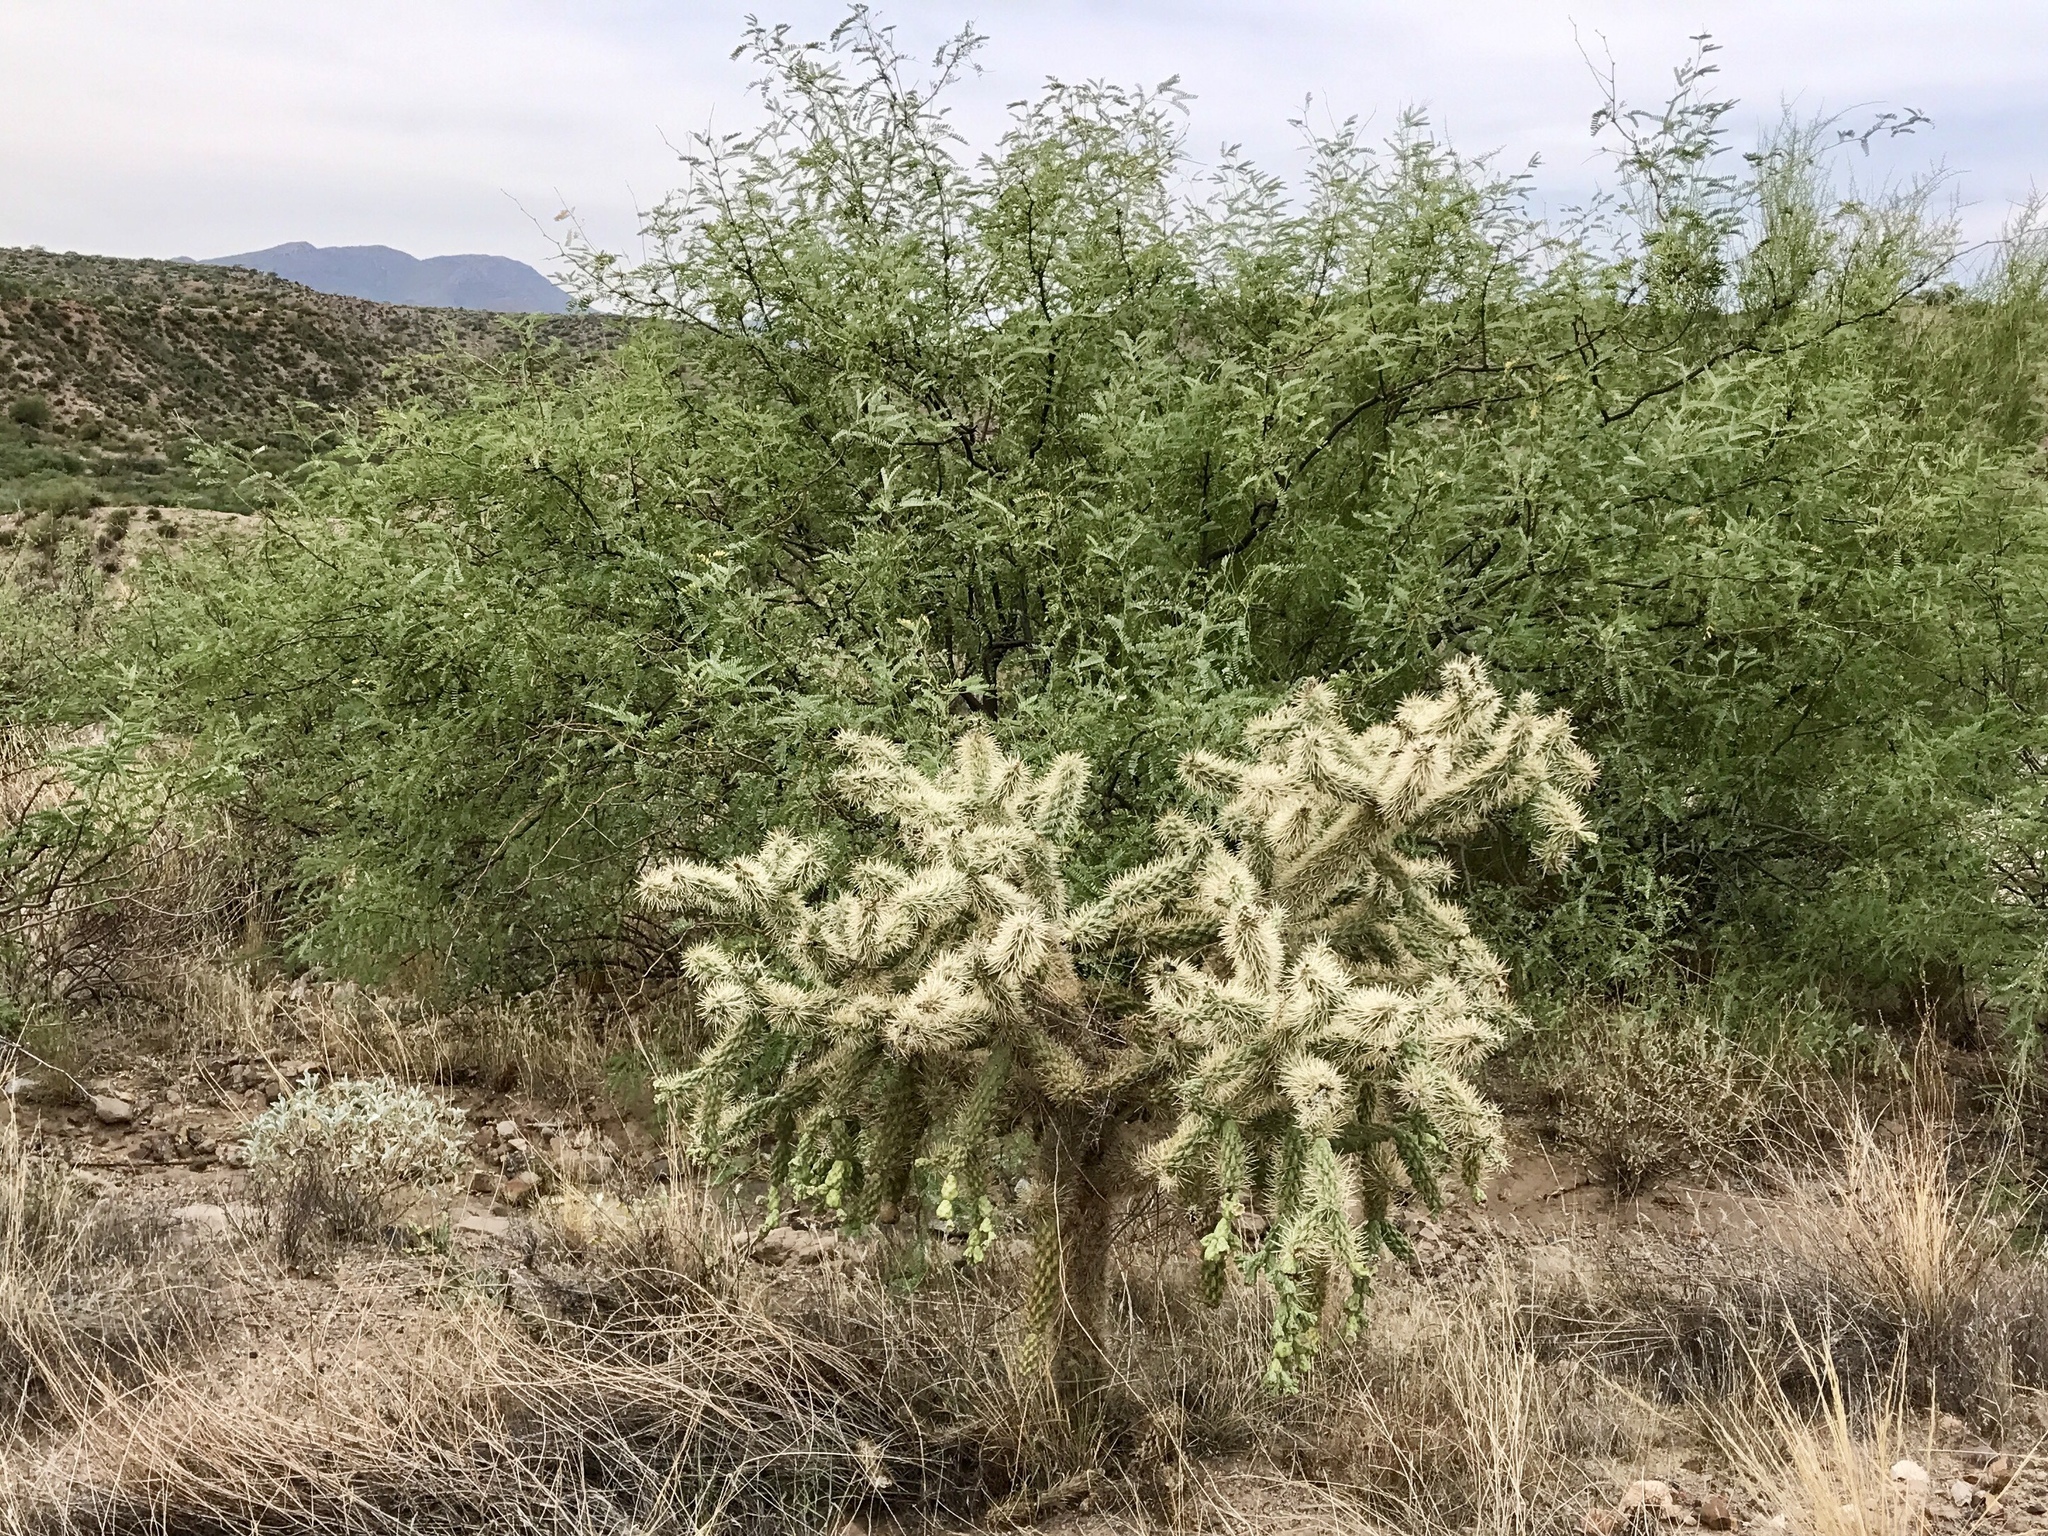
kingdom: Plantae
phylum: Tracheophyta
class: Magnoliopsida
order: Caryophyllales
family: Cactaceae
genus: Cylindropuntia
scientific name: Cylindropuntia fulgida
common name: Jumping cholla
